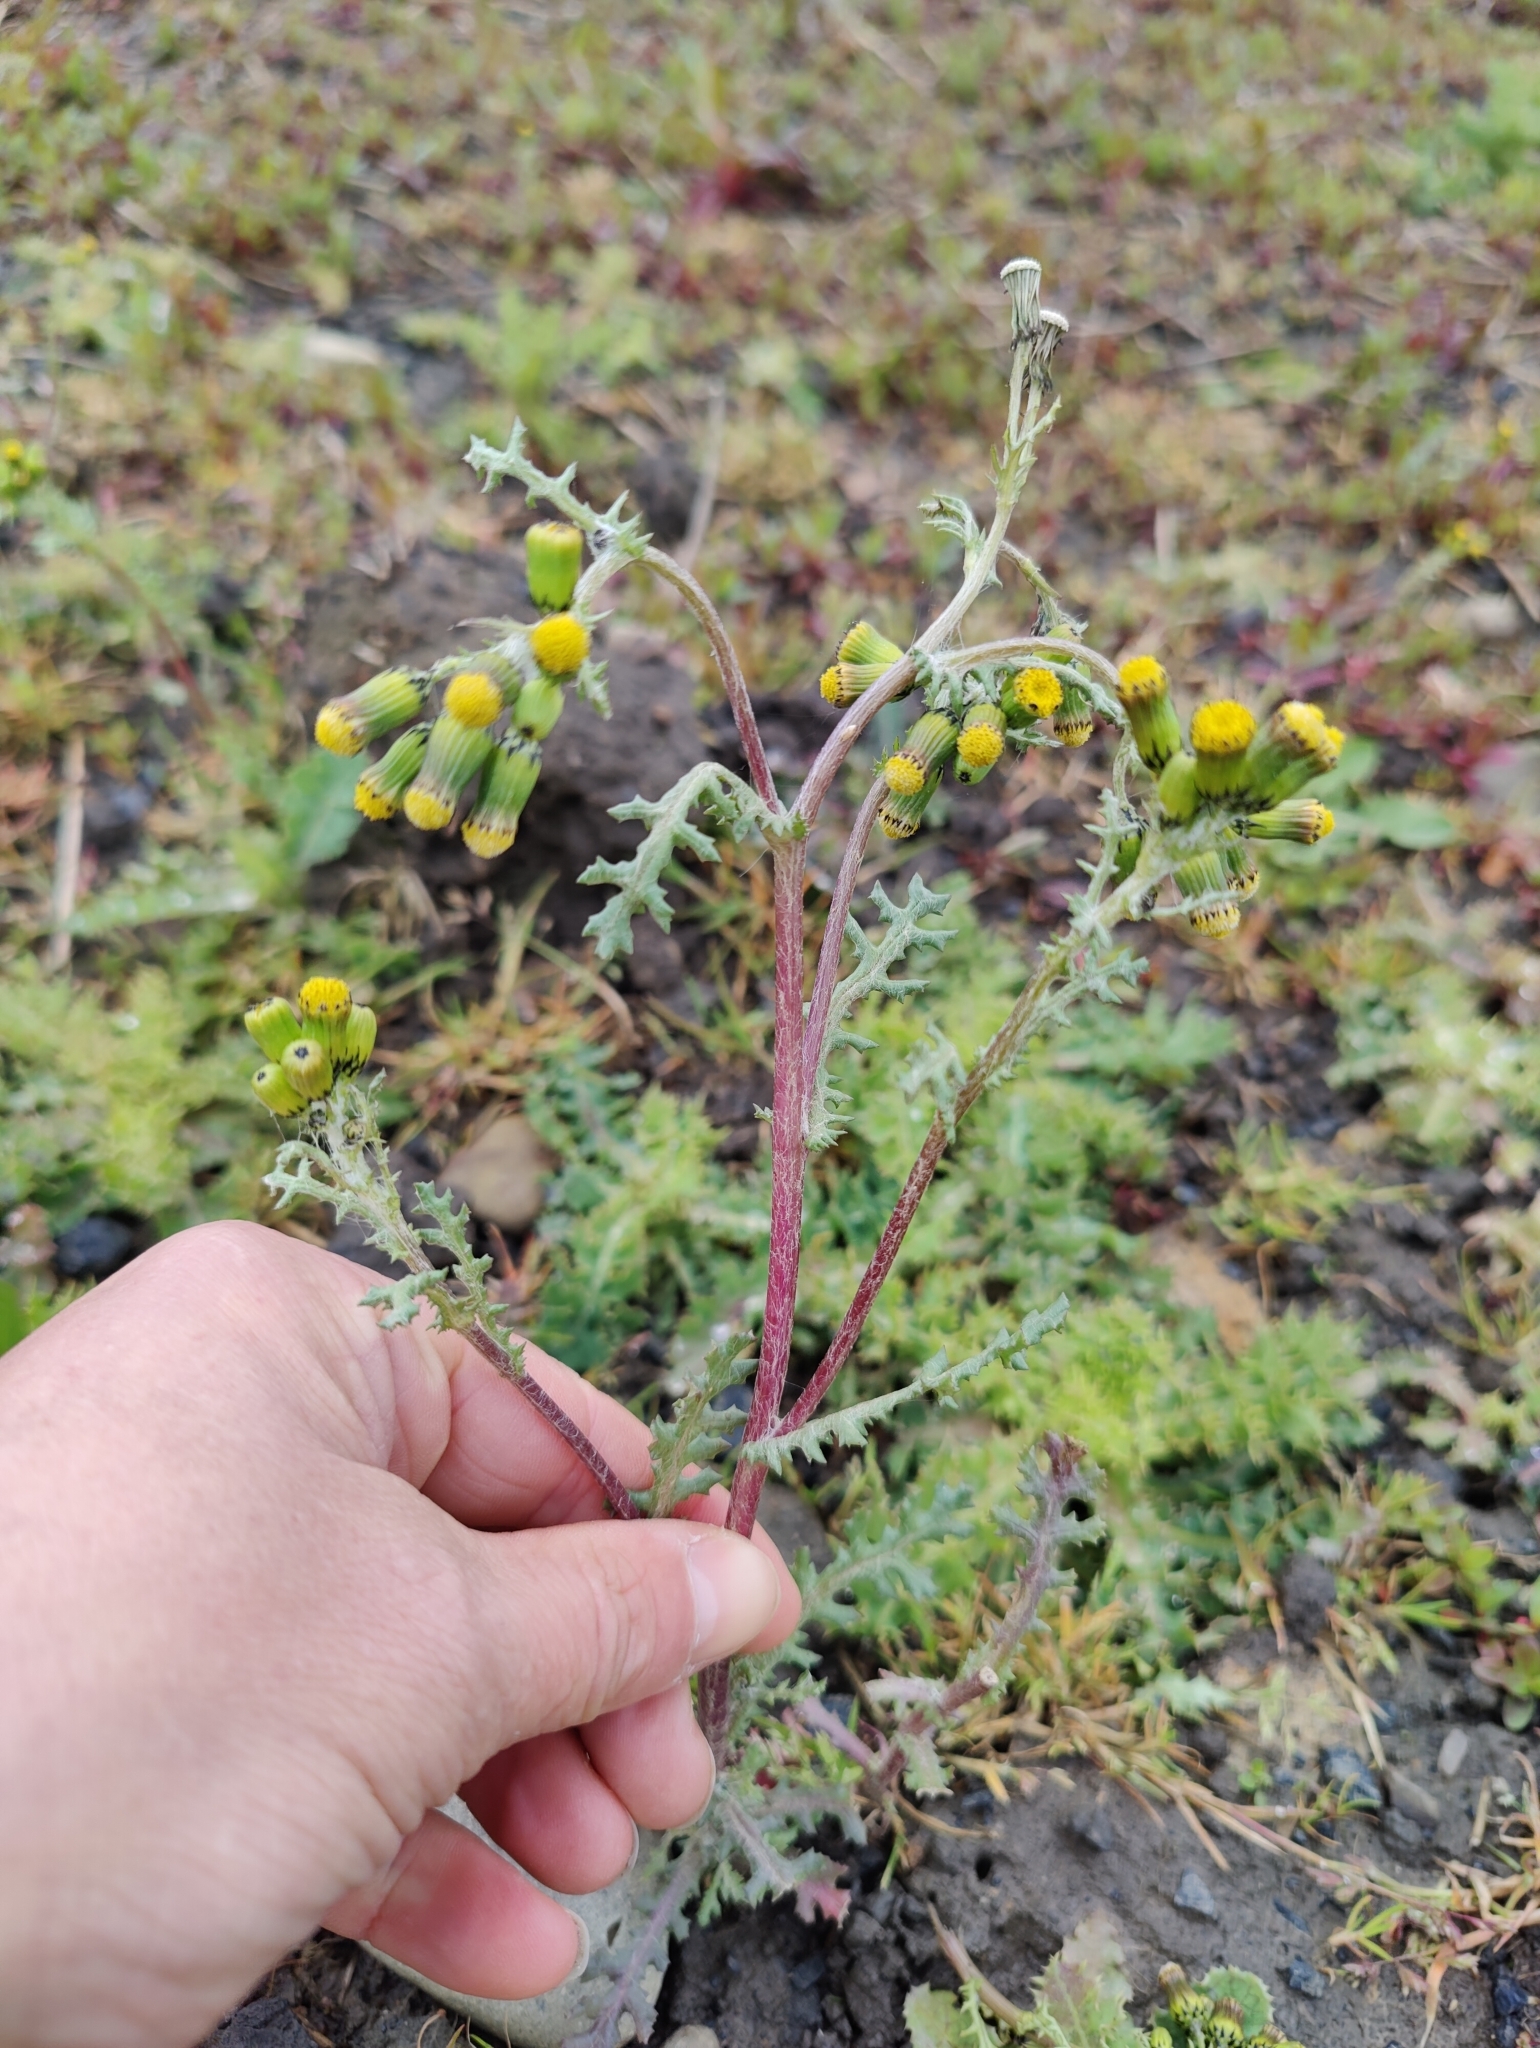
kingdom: Plantae
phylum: Tracheophyta
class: Magnoliopsida
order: Asterales
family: Asteraceae
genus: Senecio
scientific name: Senecio vulgaris
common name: Old-man-in-the-spring
